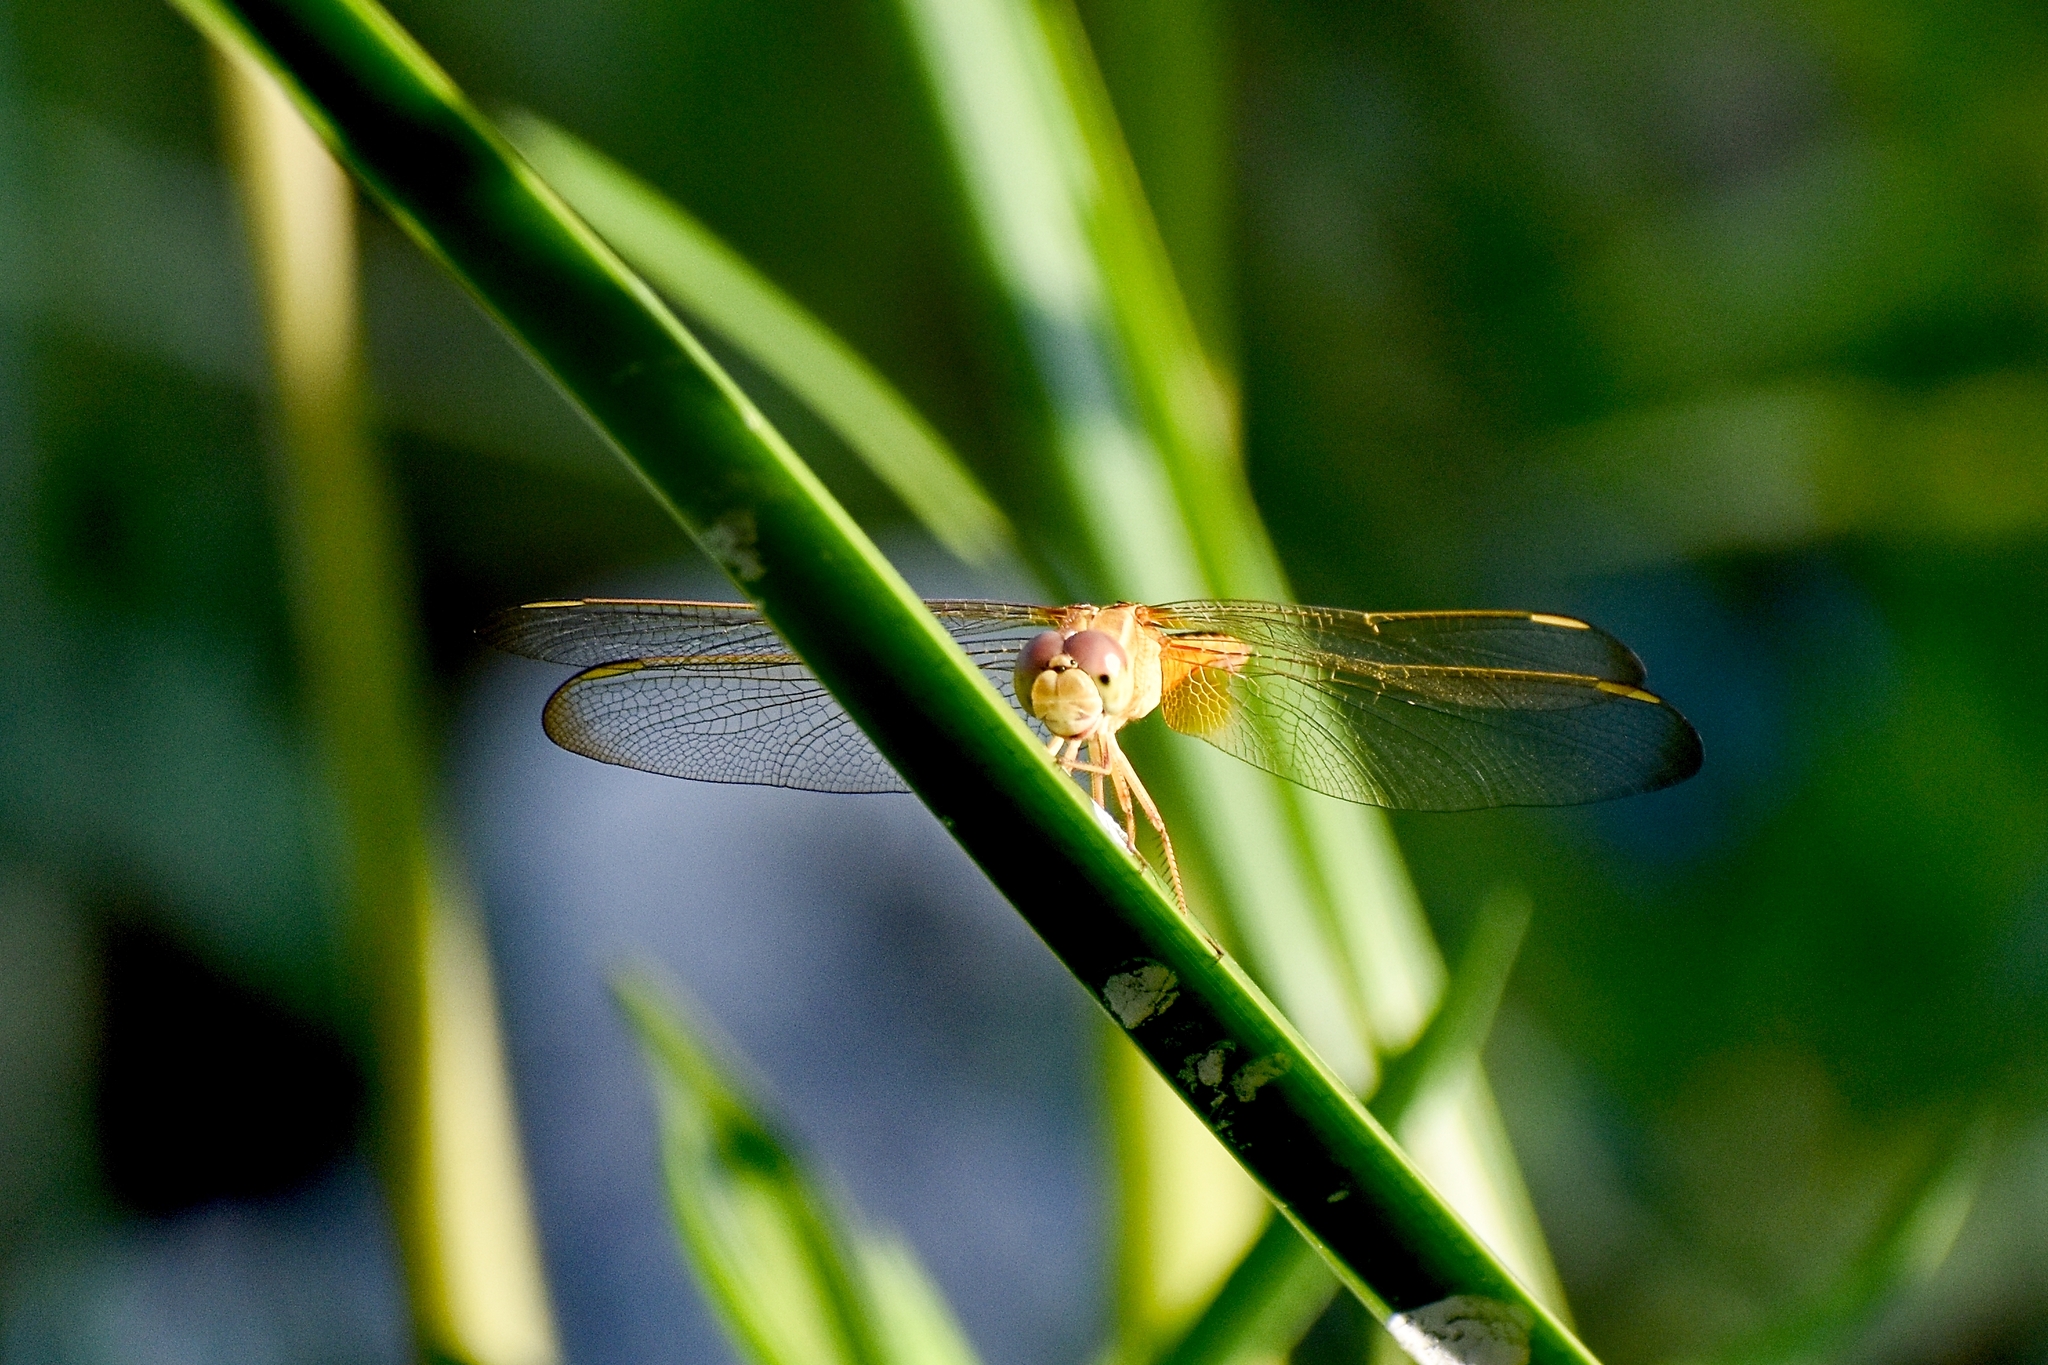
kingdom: Animalia
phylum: Arthropoda
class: Insecta
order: Odonata
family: Libellulidae
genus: Crocothemis
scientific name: Crocothemis servilia
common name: Scarlet skimmer
